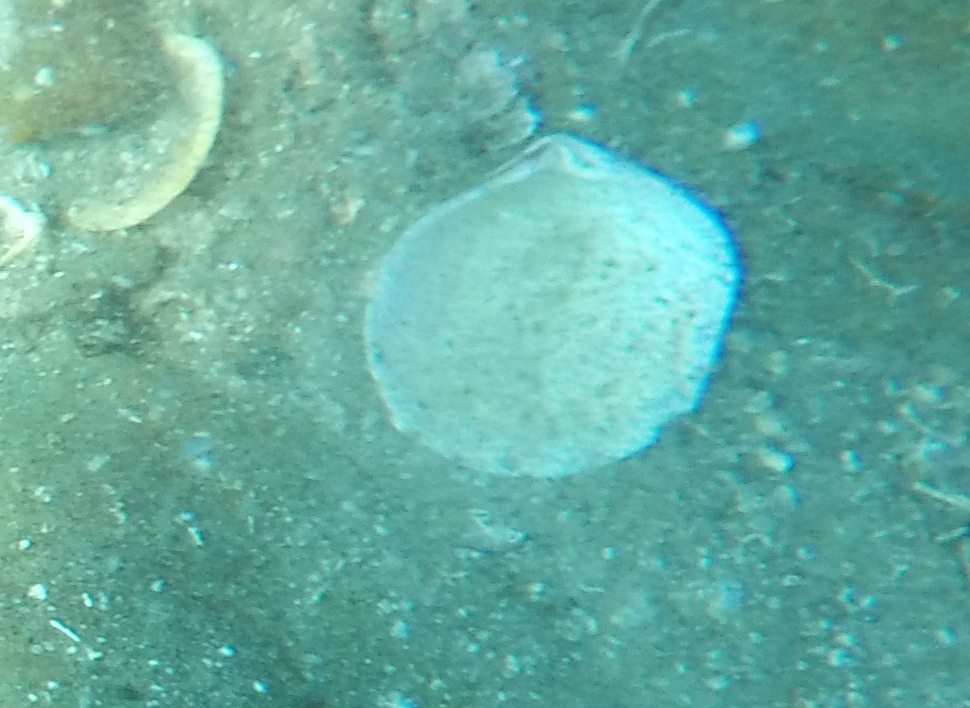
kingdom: Animalia
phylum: Mollusca
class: Bivalvia
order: Cardiida
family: Semelidae
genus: Semele
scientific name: Semele decisa
